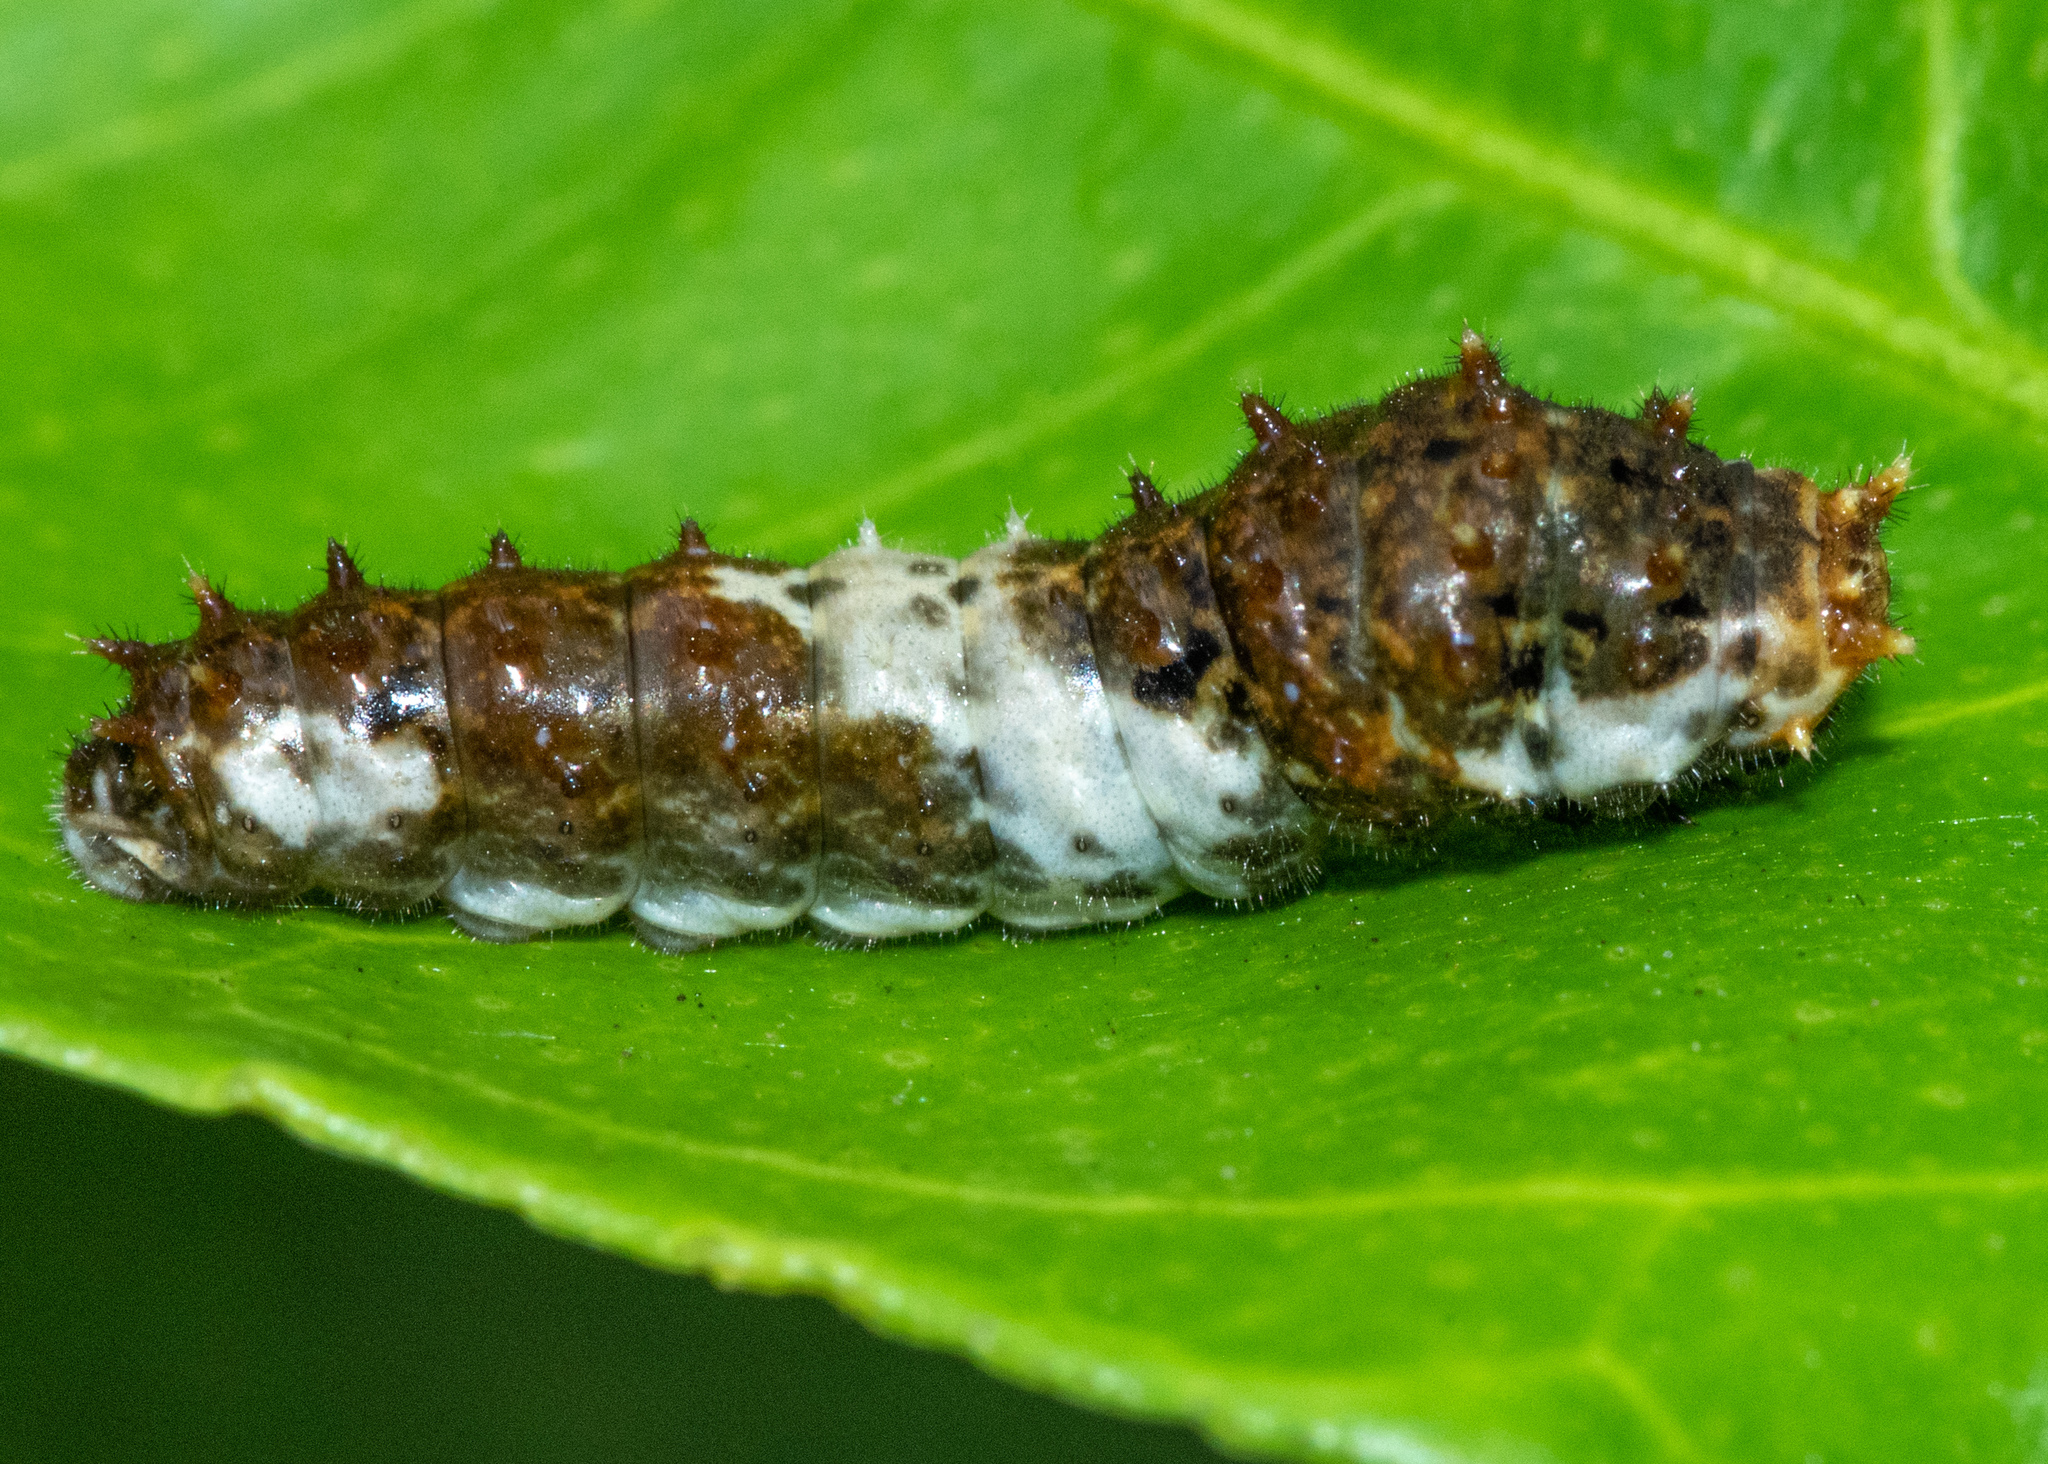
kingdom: Animalia
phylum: Arthropoda
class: Insecta
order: Lepidoptera
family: Papilionidae
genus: Papilio
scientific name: Papilio xuthus
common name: Asian swallowtail
